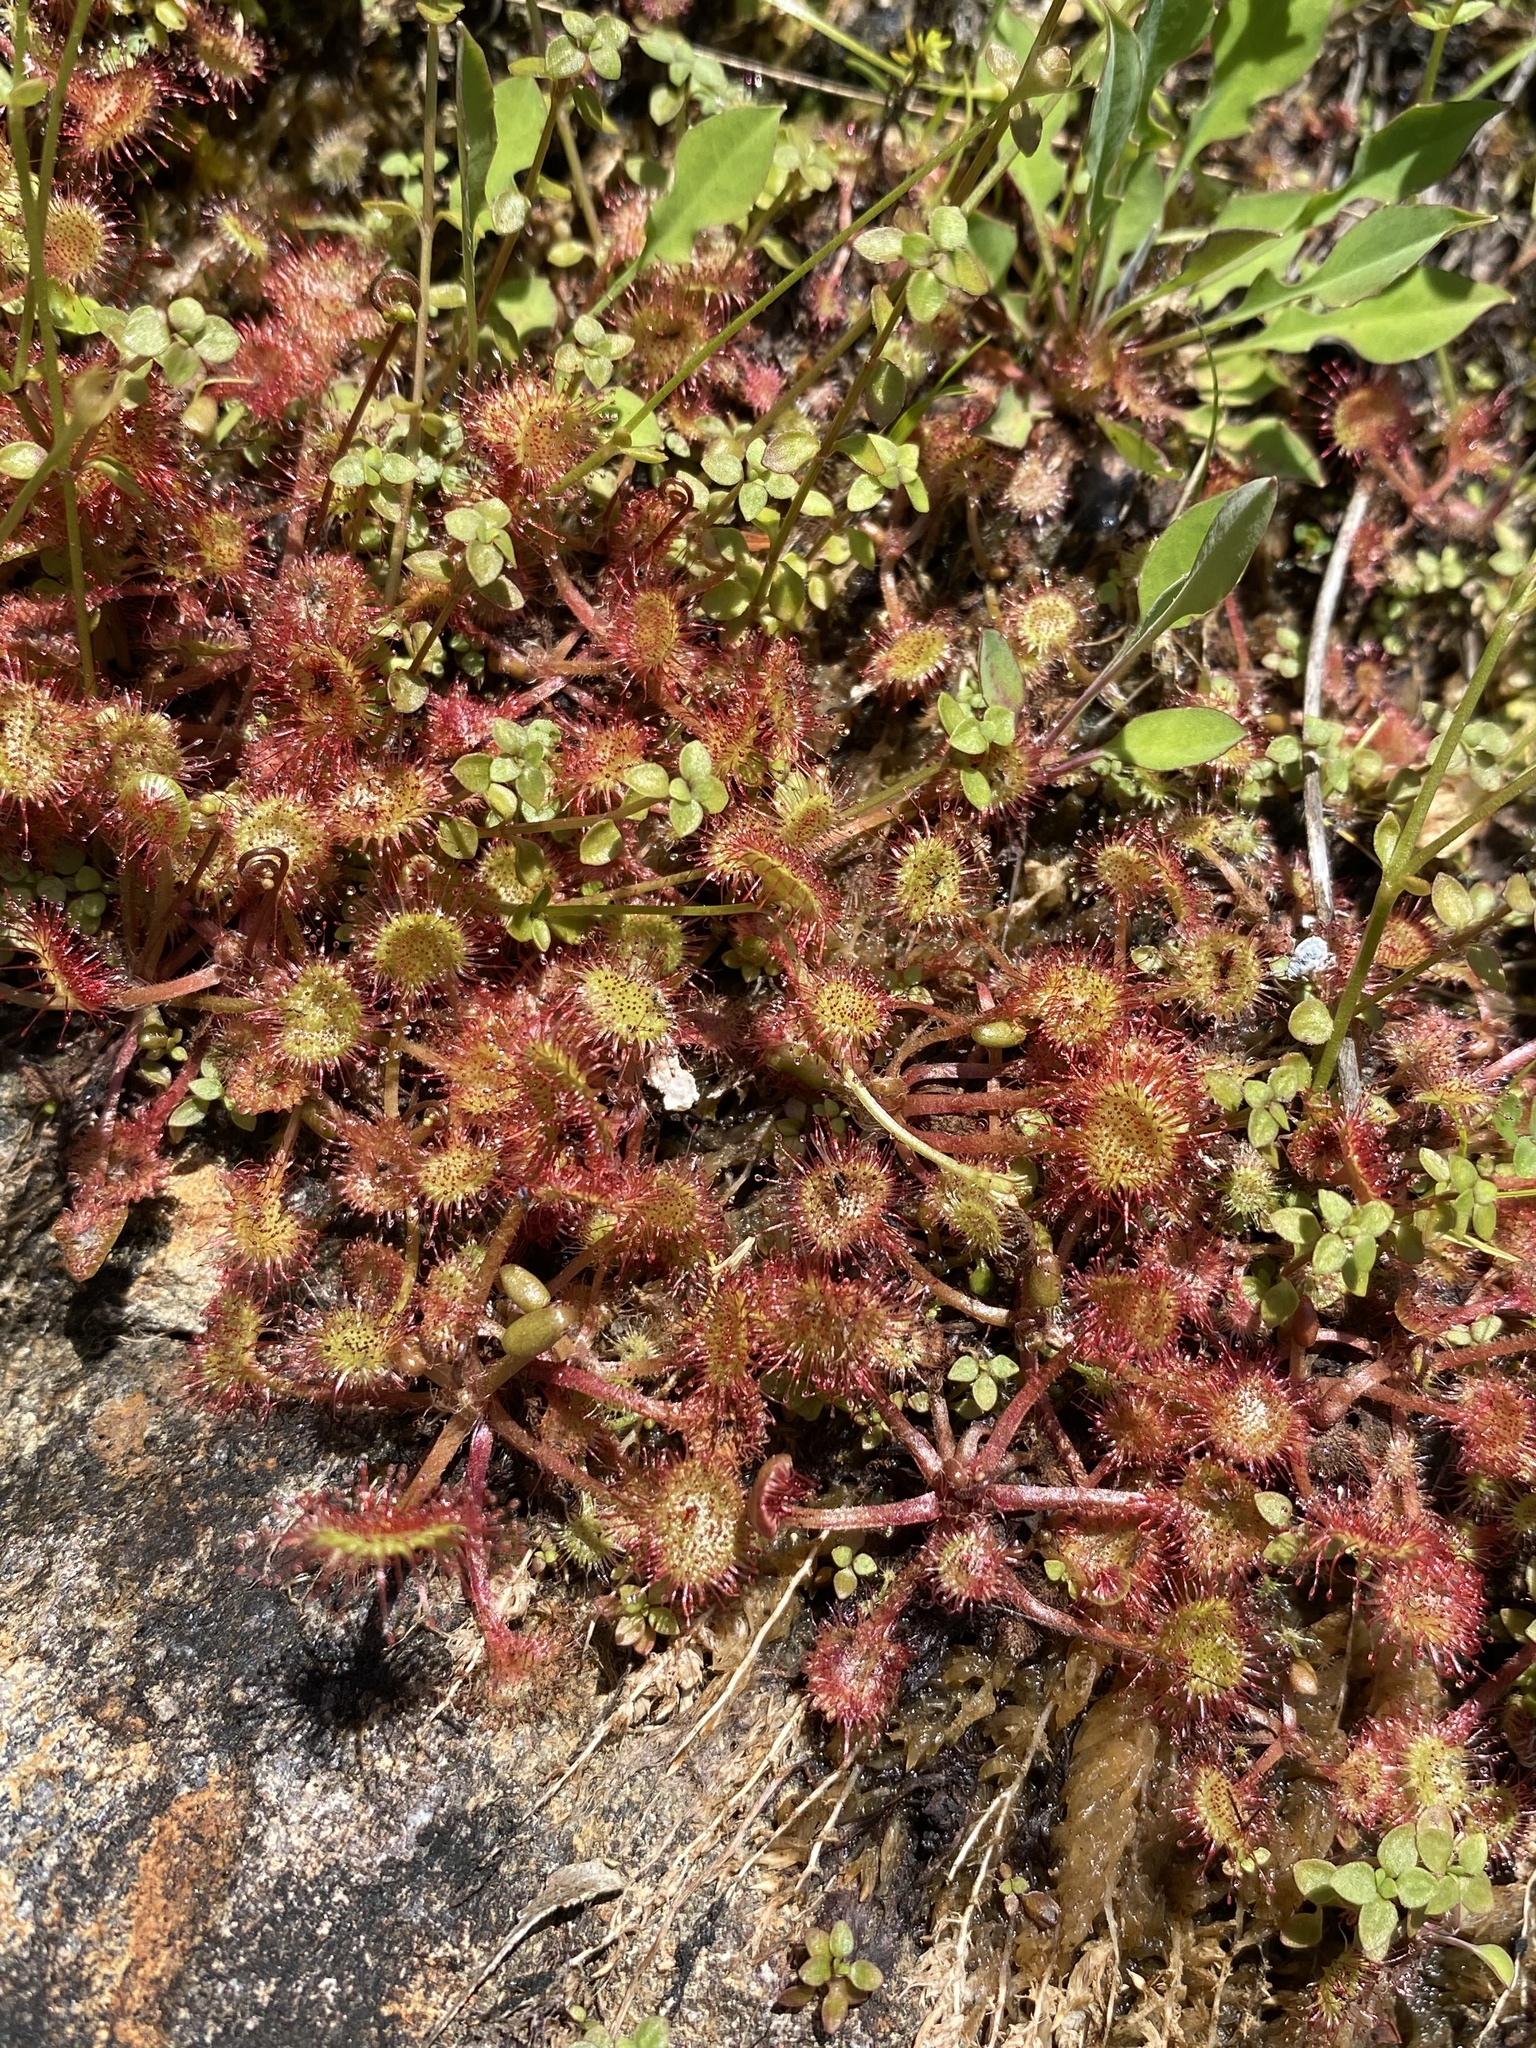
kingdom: Plantae
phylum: Tracheophyta
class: Magnoliopsida
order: Caryophyllales
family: Droseraceae
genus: Drosera
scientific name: Drosera rotundifolia
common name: Round-leaved sundew
